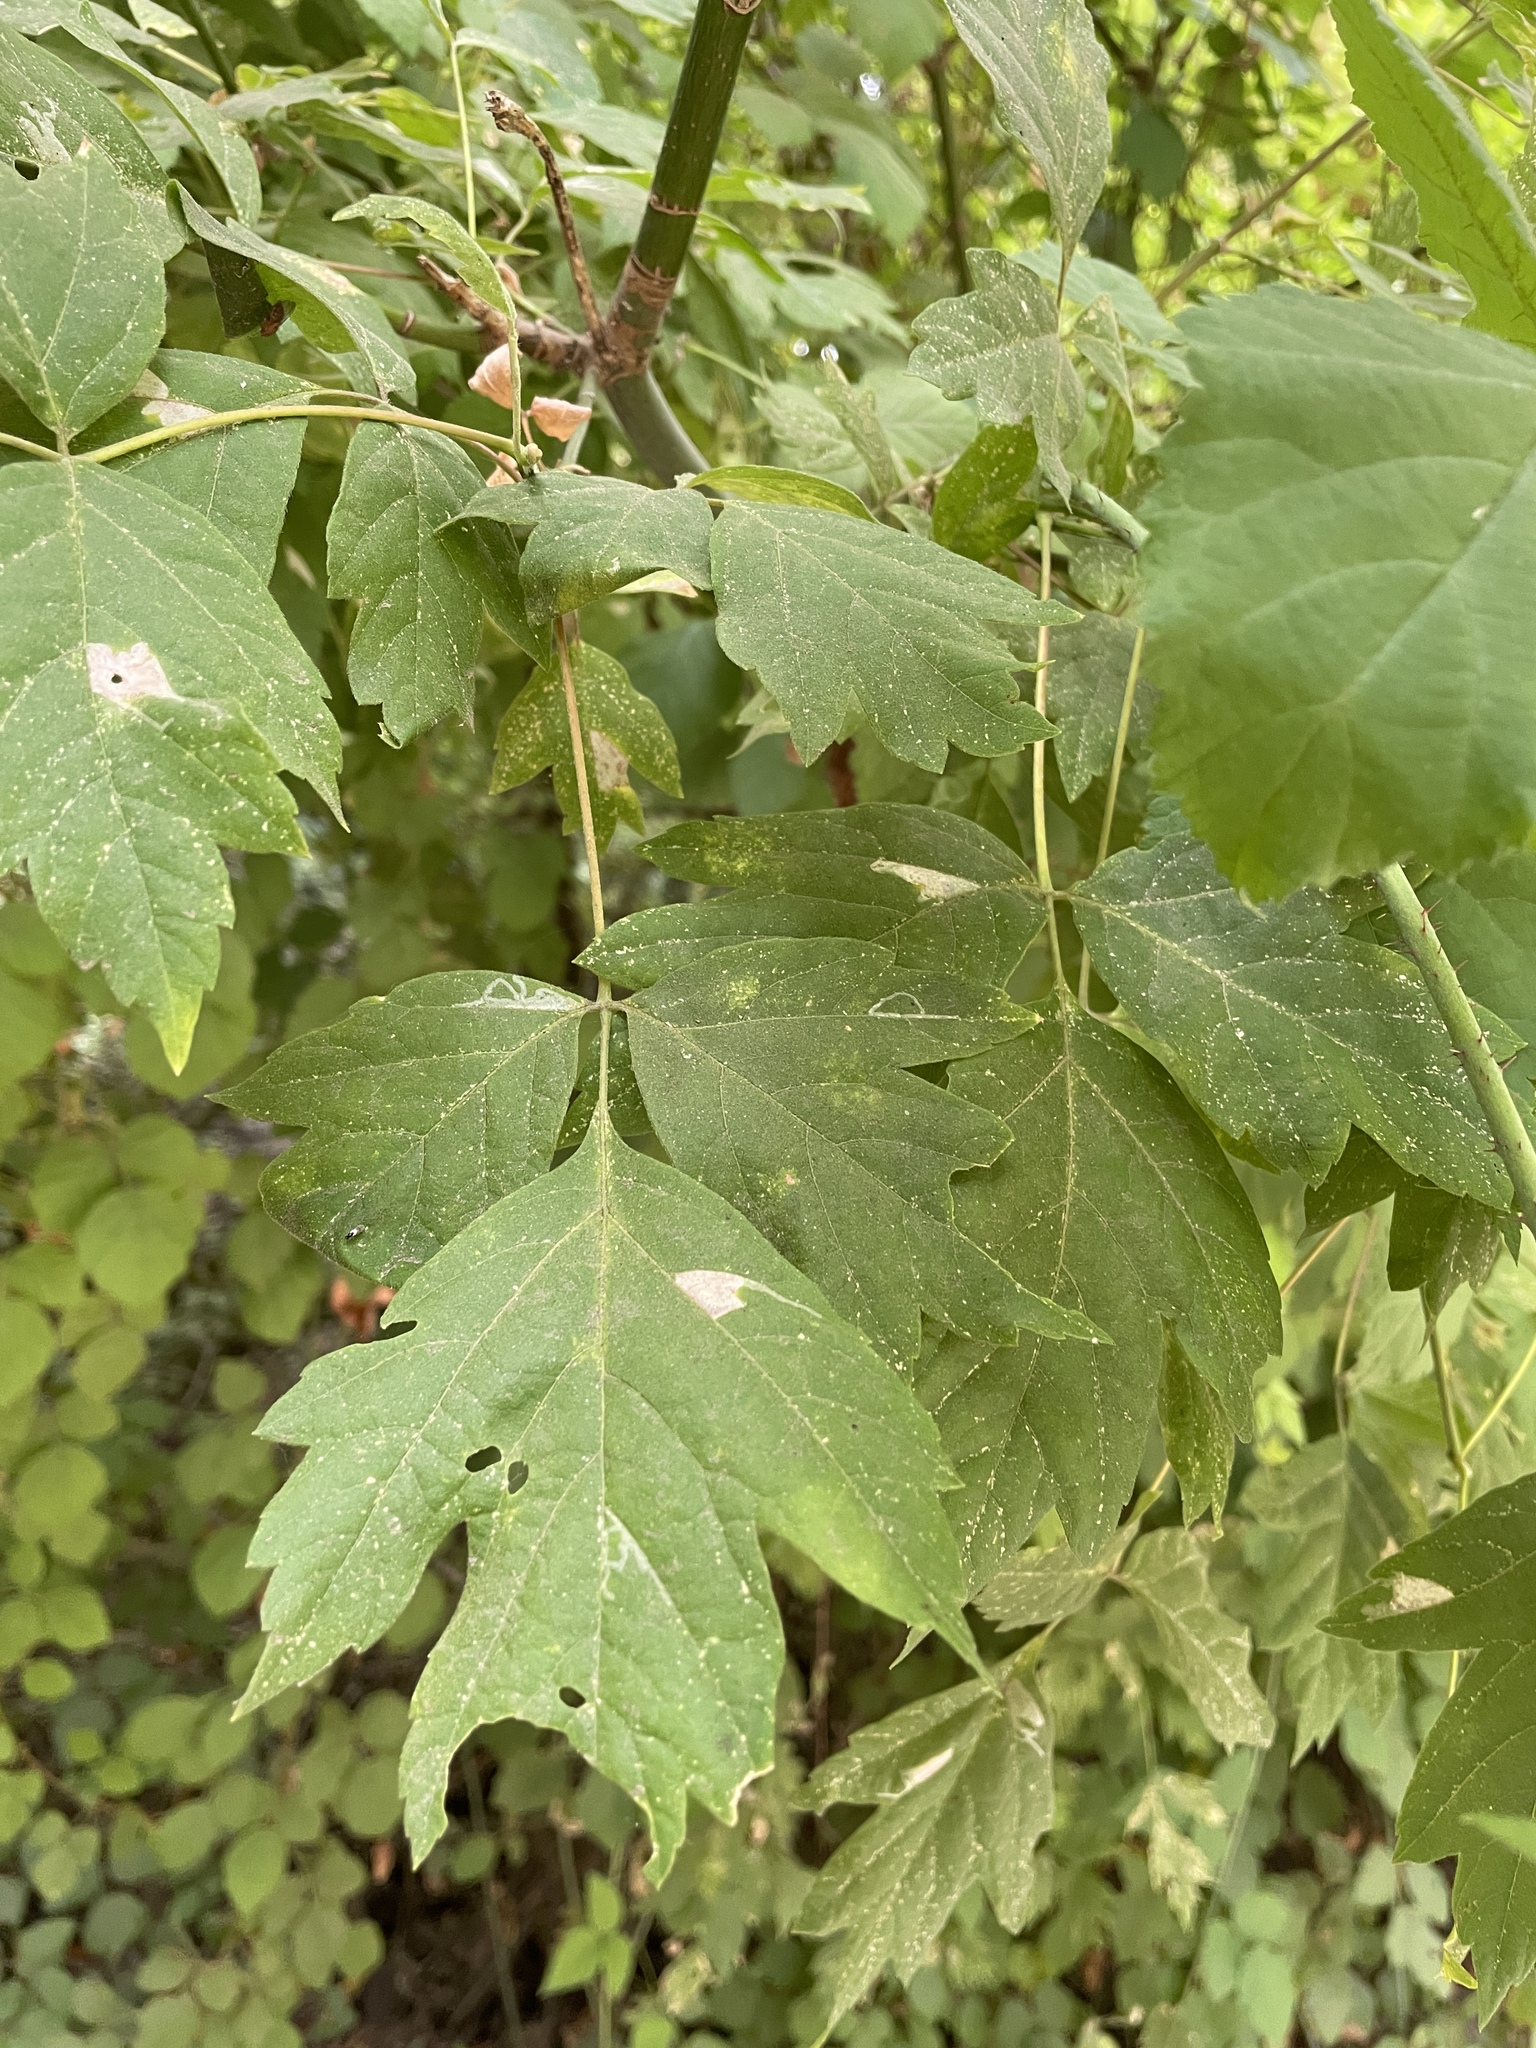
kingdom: Plantae
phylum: Tracheophyta
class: Magnoliopsida
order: Sapindales
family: Sapindaceae
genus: Acer
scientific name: Acer negundo
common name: Ashleaf maple
